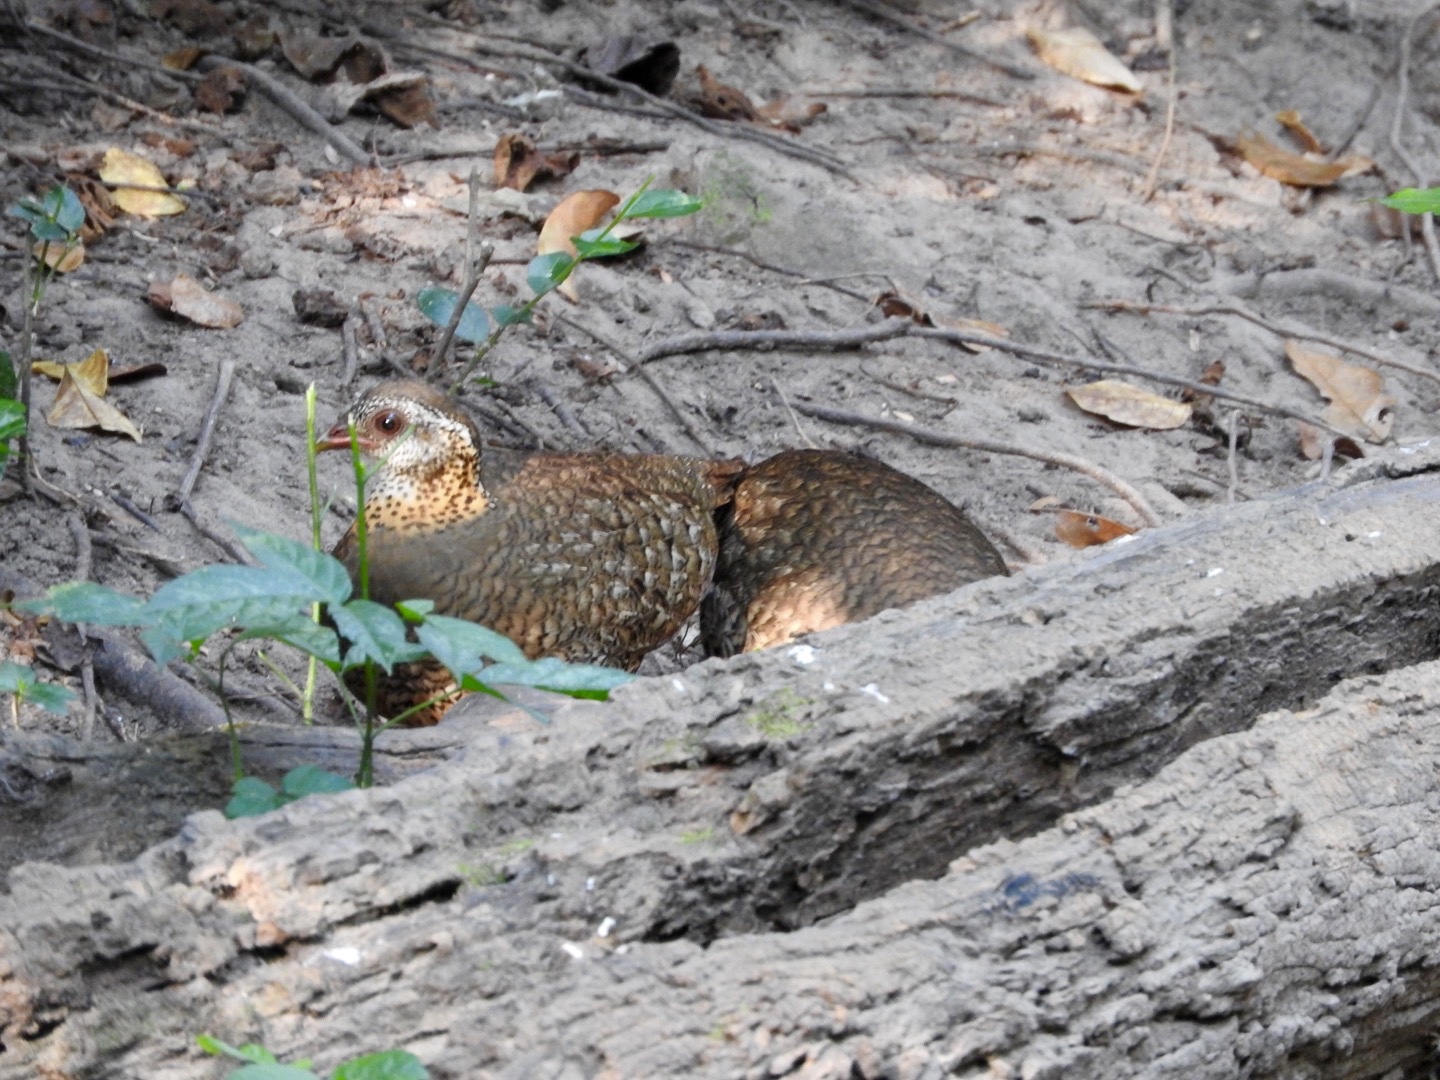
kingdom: Animalia
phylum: Chordata
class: Aves
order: Galliformes
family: Phasianidae
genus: Tropicoperdix
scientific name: Tropicoperdix chloropus
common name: Green-legged partridge
